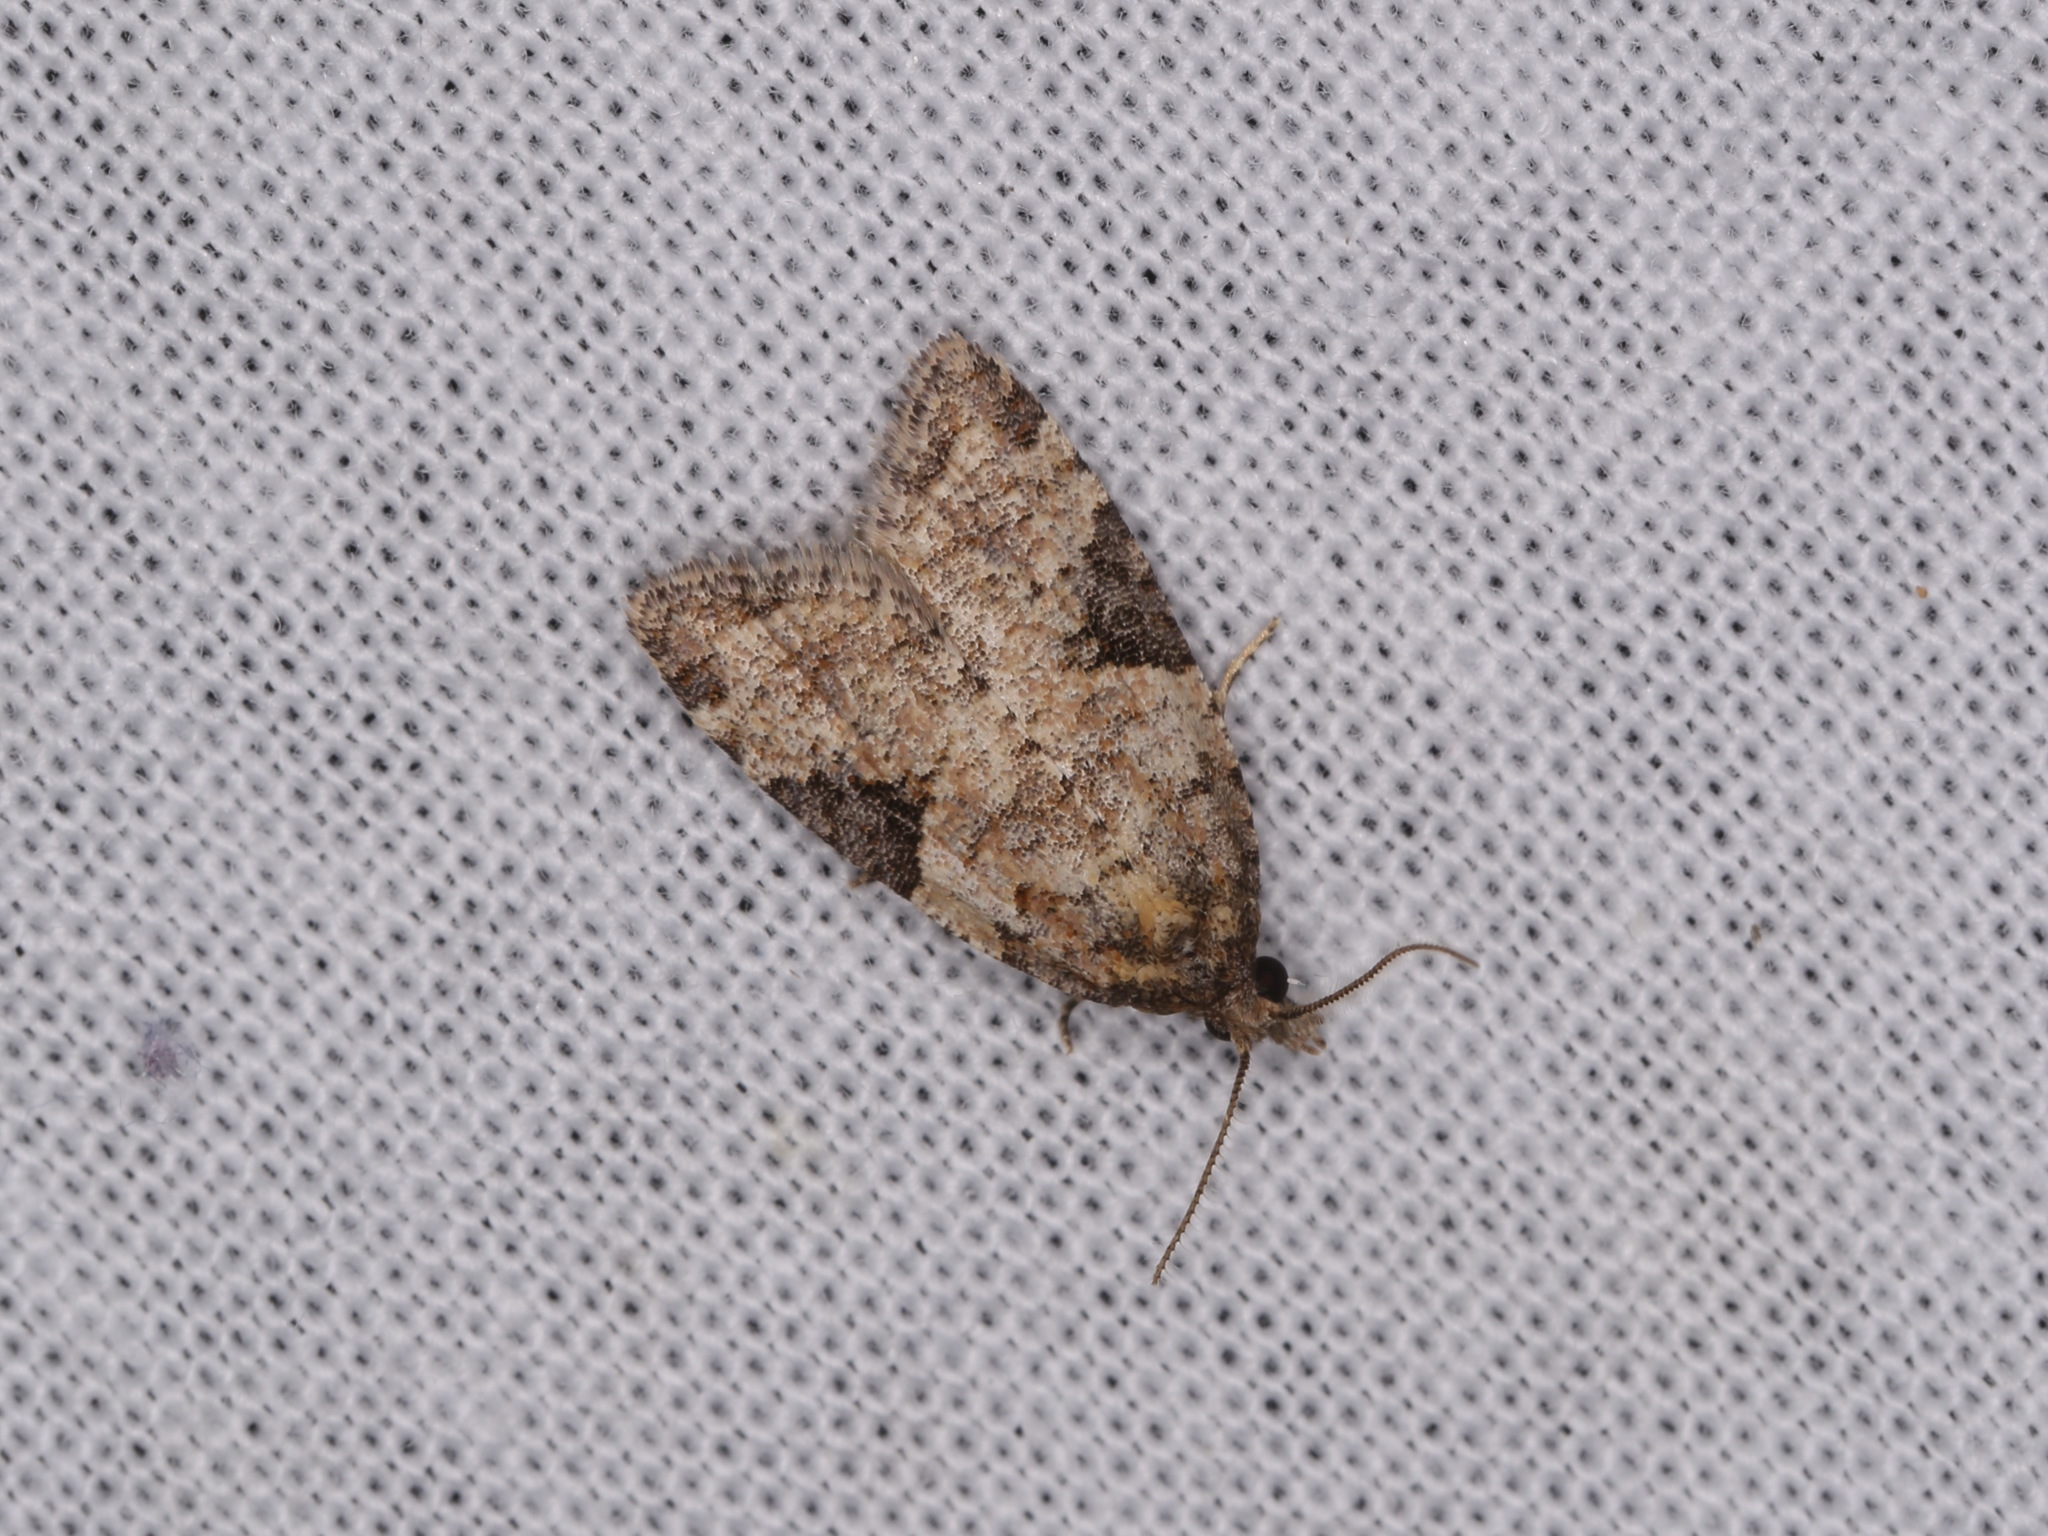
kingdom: Animalia
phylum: Arthropoda
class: Insecta
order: Lepidoptera
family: Tortricidae
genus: Anopina
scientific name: Anopina triangulana
